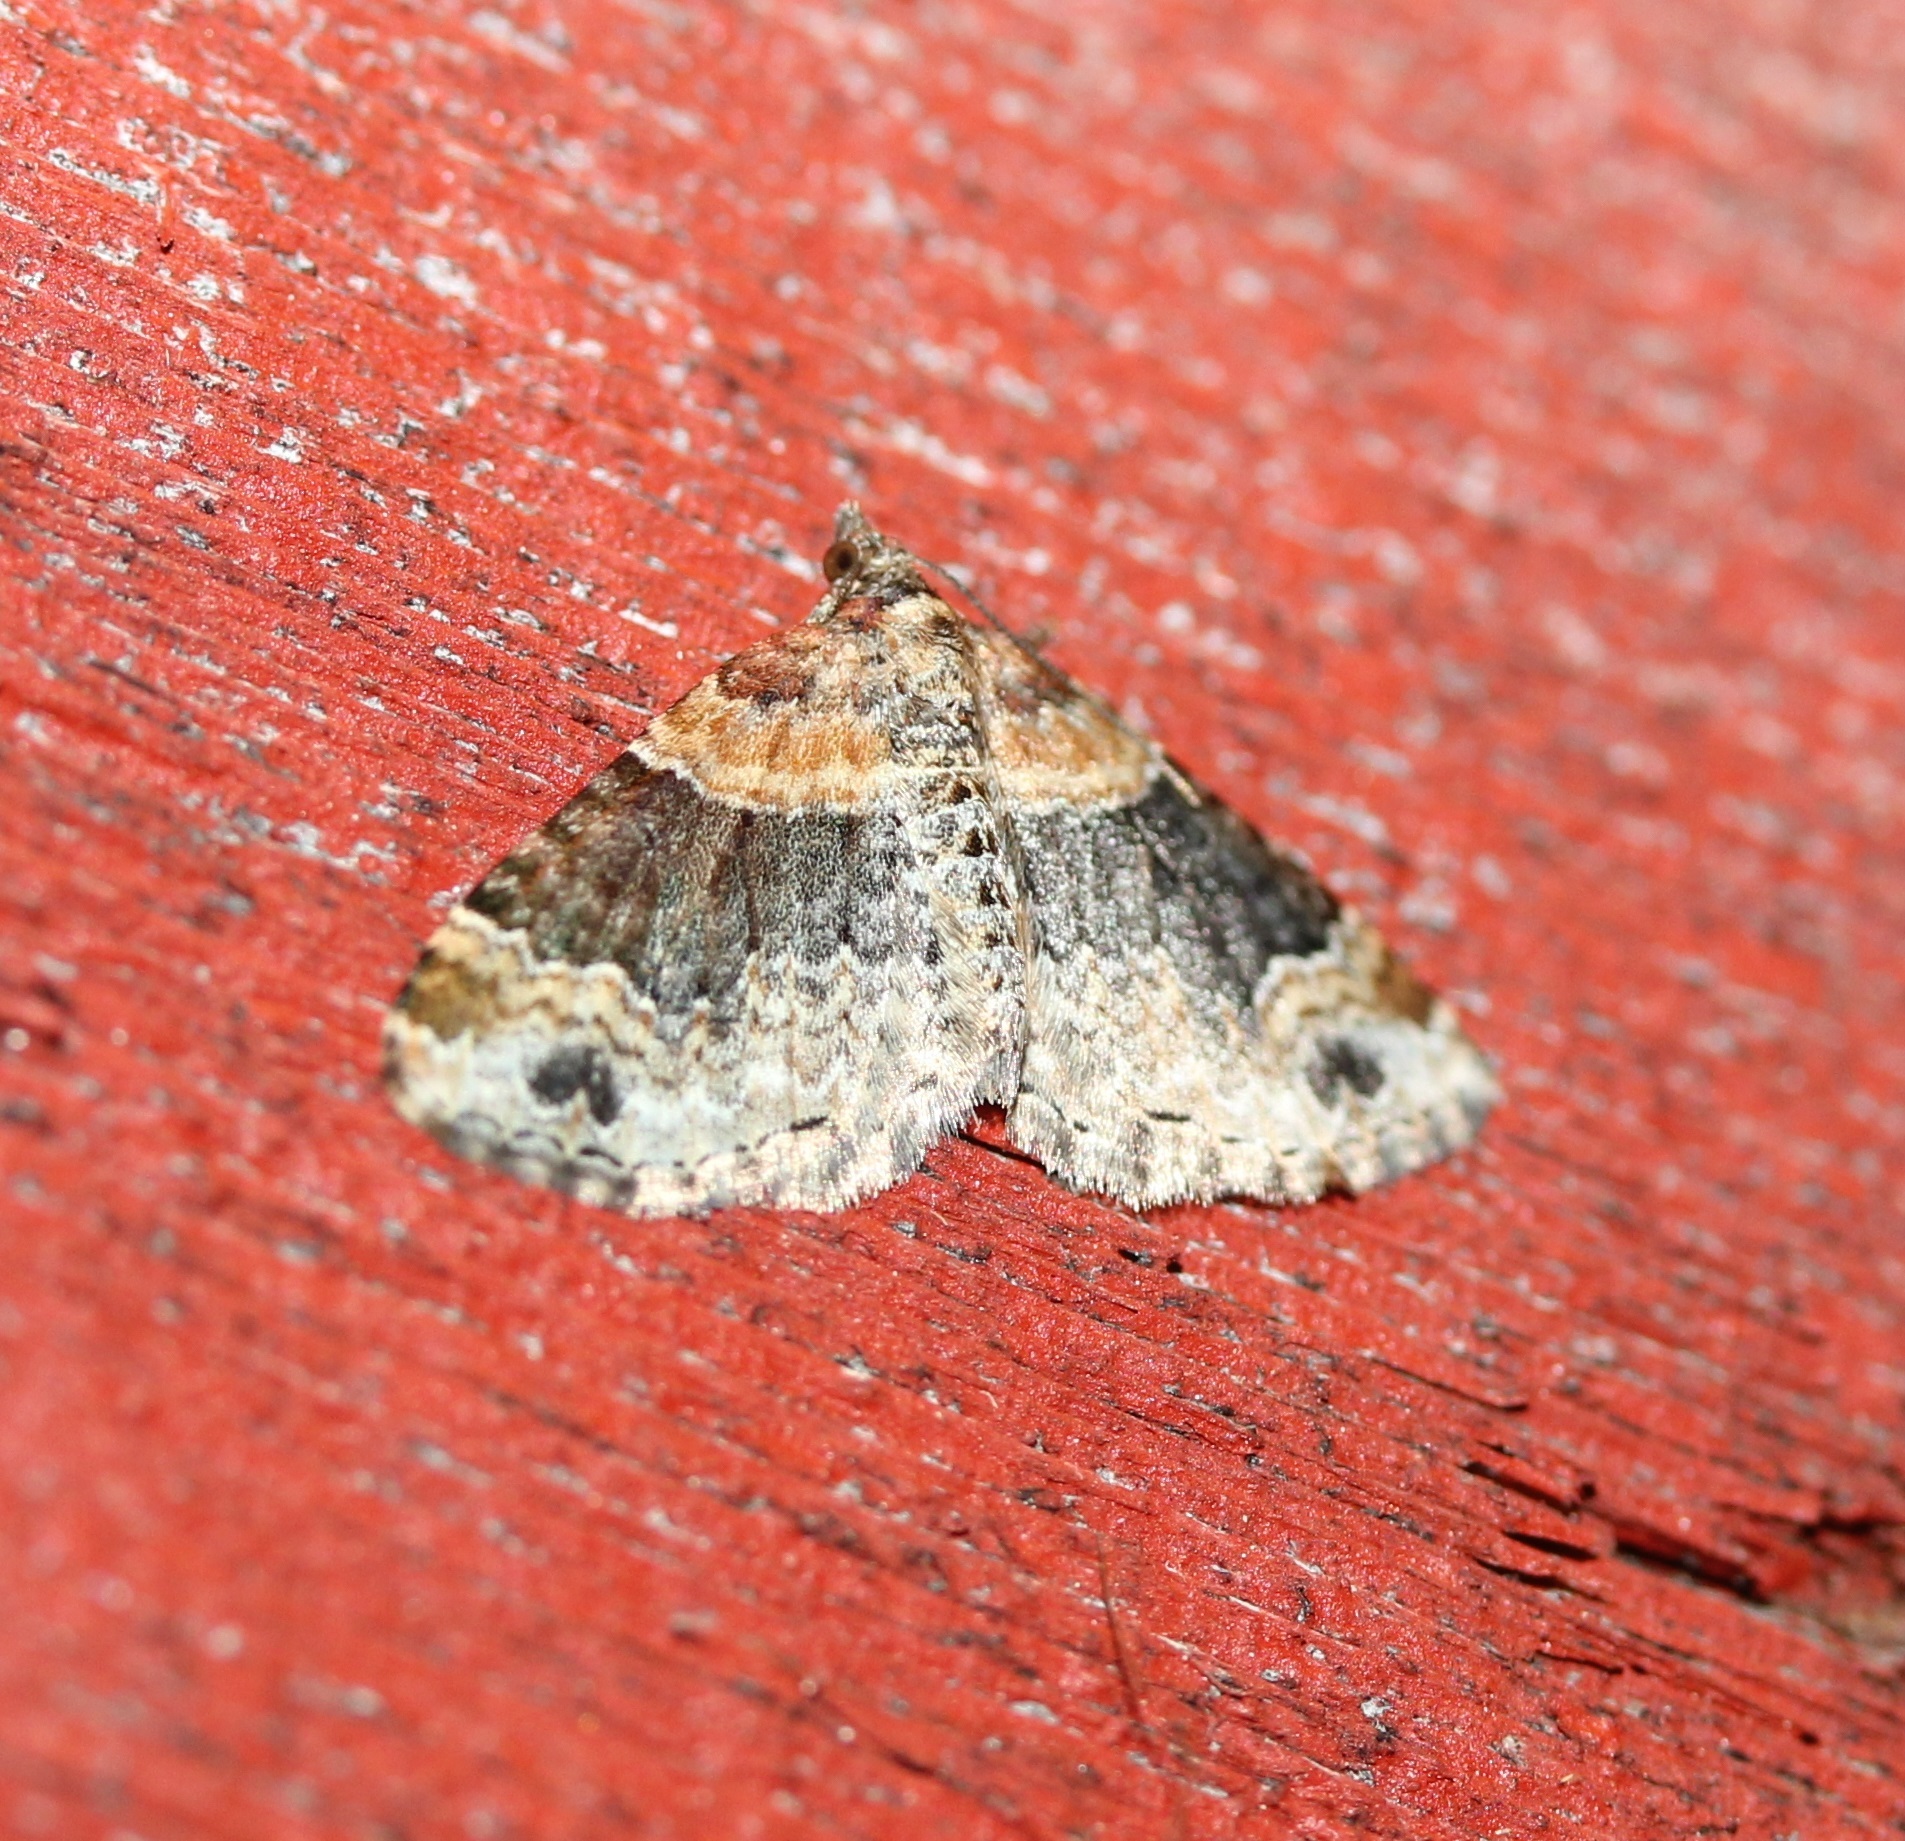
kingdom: Animalia
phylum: Arthropoda
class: Insecta
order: Lepidoptera
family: Geometridae
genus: Xanthorhoe
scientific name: Xanthorhoe ferrugata
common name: Dark-barred twin-spot carpet
